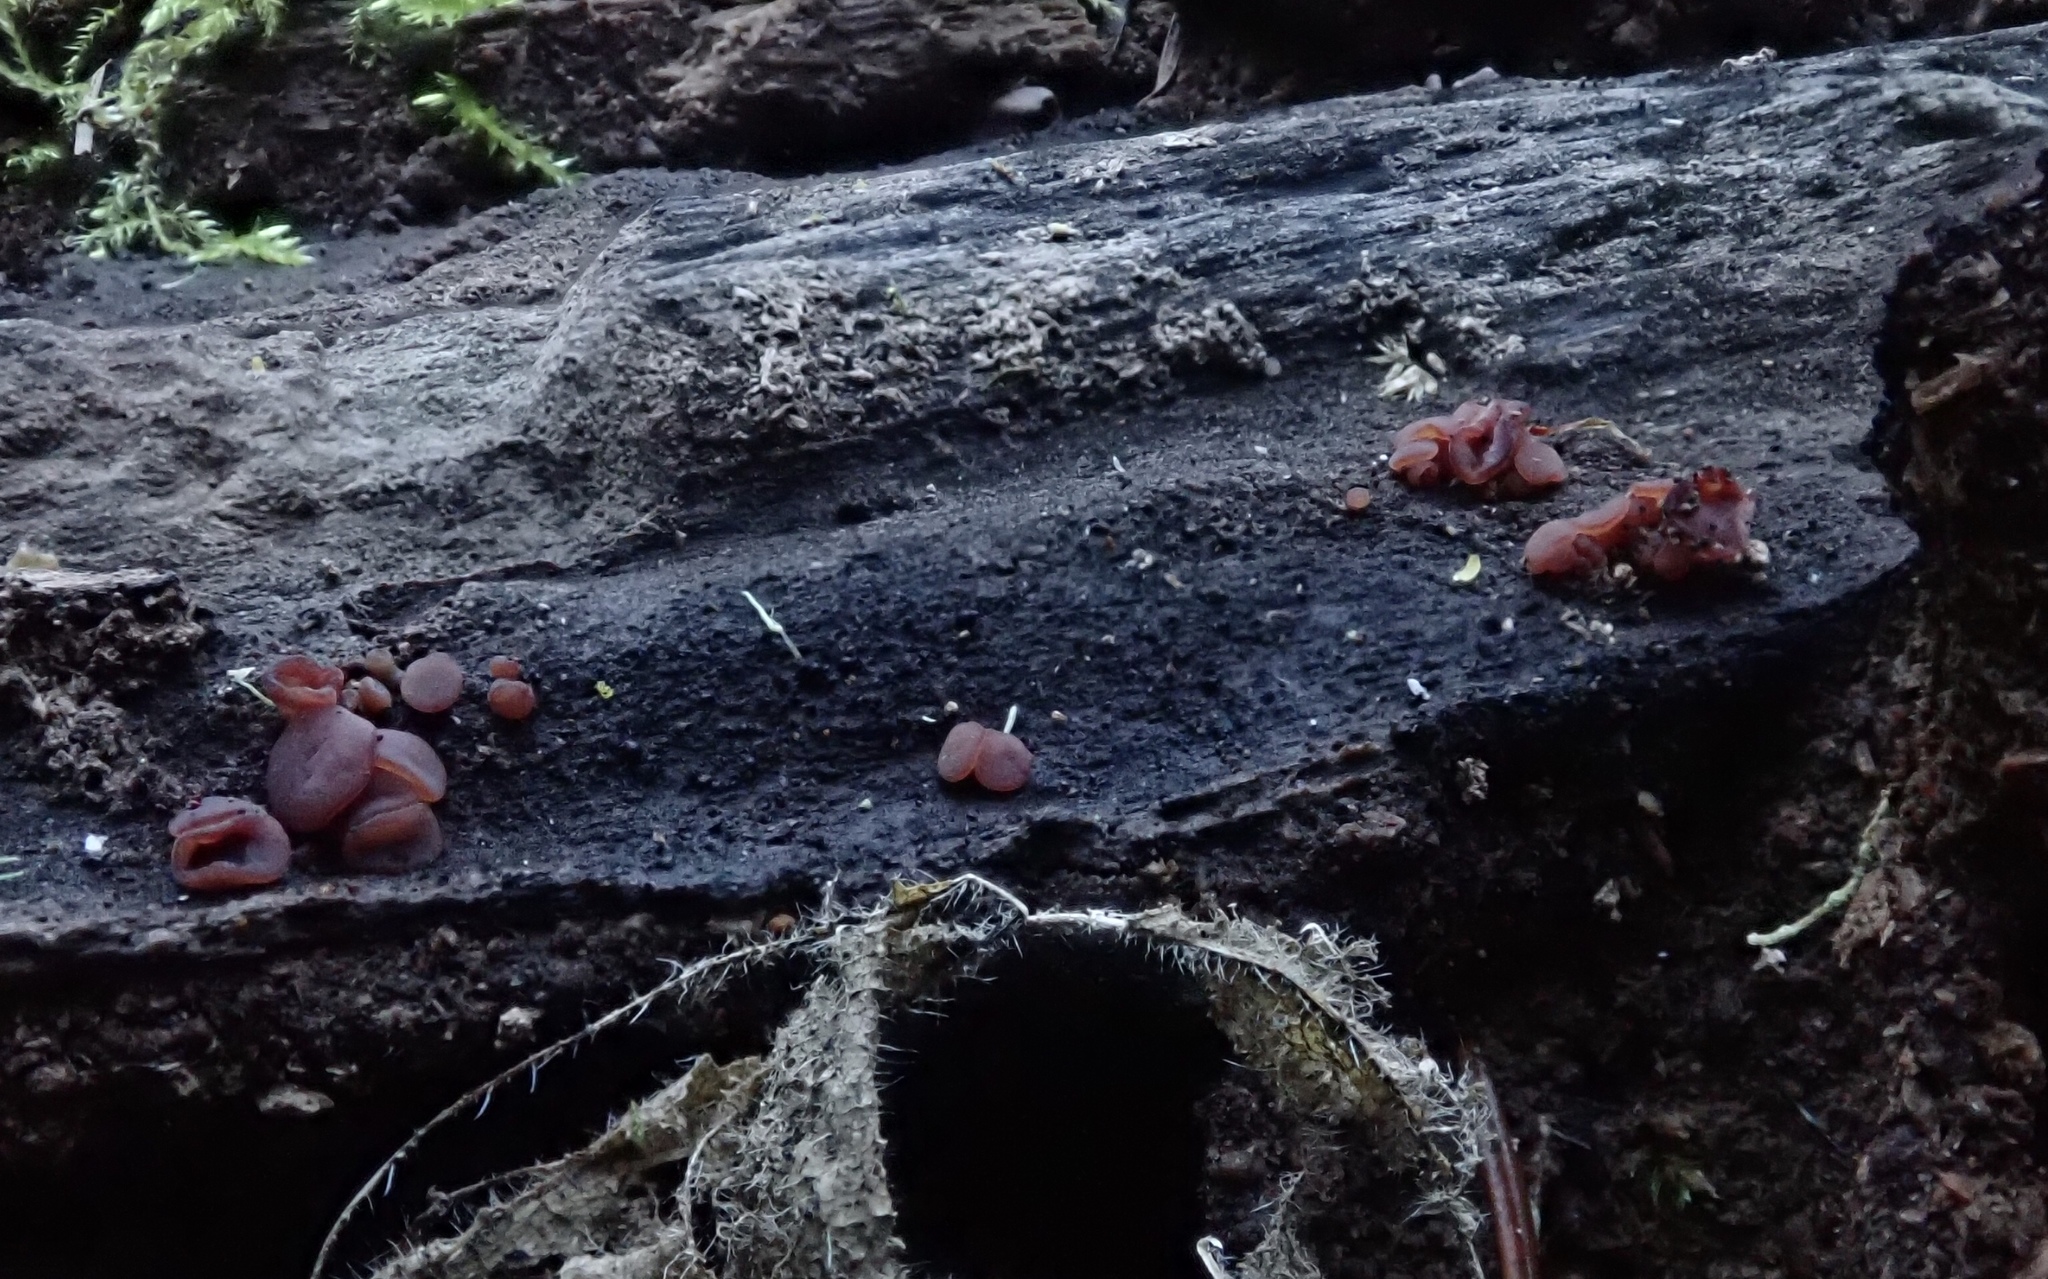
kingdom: Fungi
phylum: Ascomycota
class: Leotiomycetes
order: Helotiales
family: Gelatinodiscaceae
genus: Ascocoryne
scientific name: Ascocoryne sarcoides
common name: Purple jellydisc
